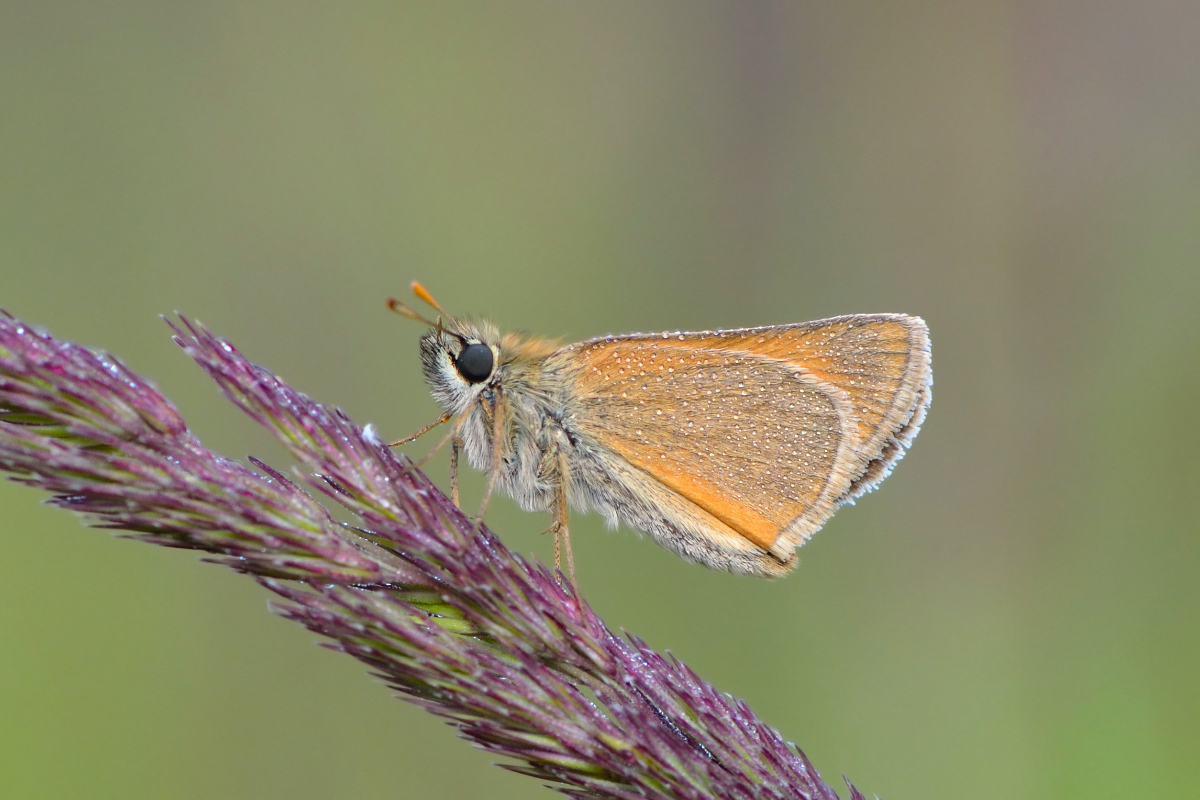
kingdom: Animalia
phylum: Arthropoda
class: Insecta
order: Lepidoptera
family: Hesperiidae
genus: Thymelicus
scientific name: Thymelicus sylvestris
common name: Small skipper
